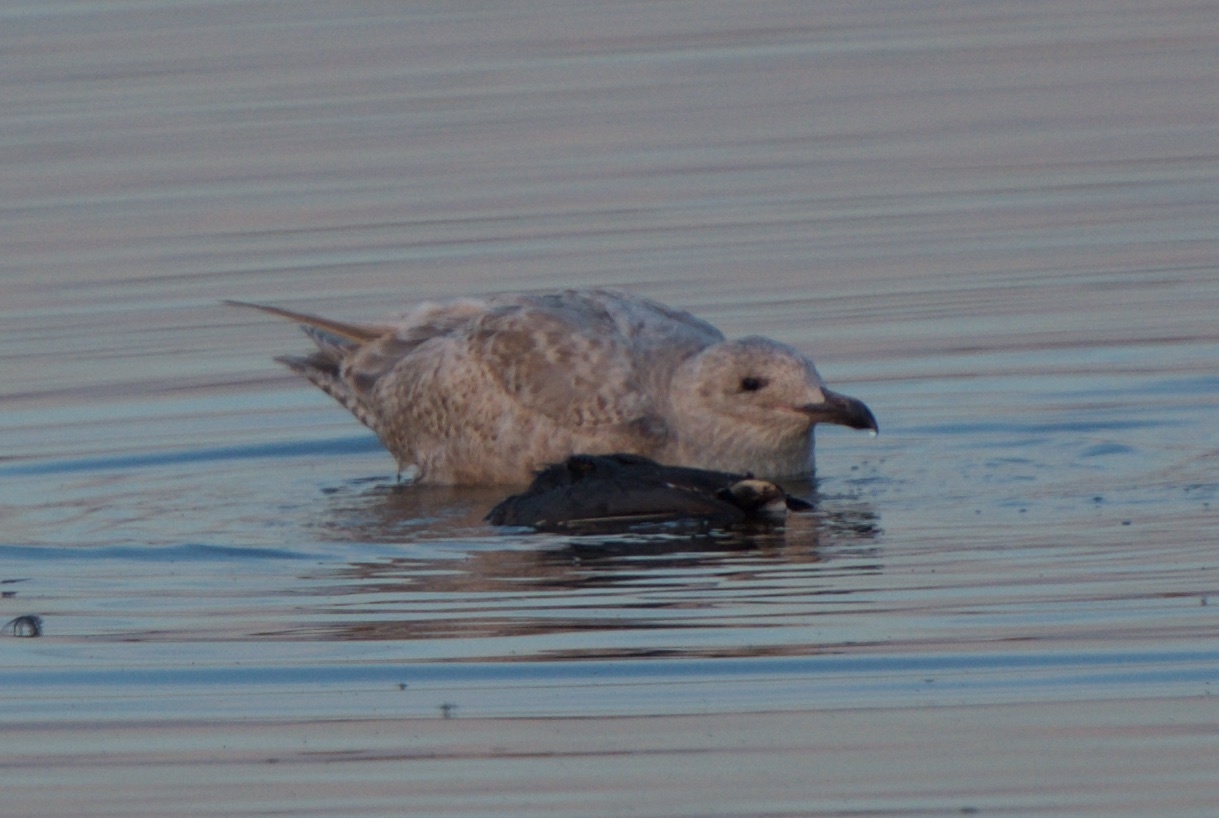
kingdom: Animalia
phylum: Chordata
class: Aves
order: Charadriiformes
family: Laridae
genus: Larus
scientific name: Larus glaucescens
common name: Glaucous-winged gull
